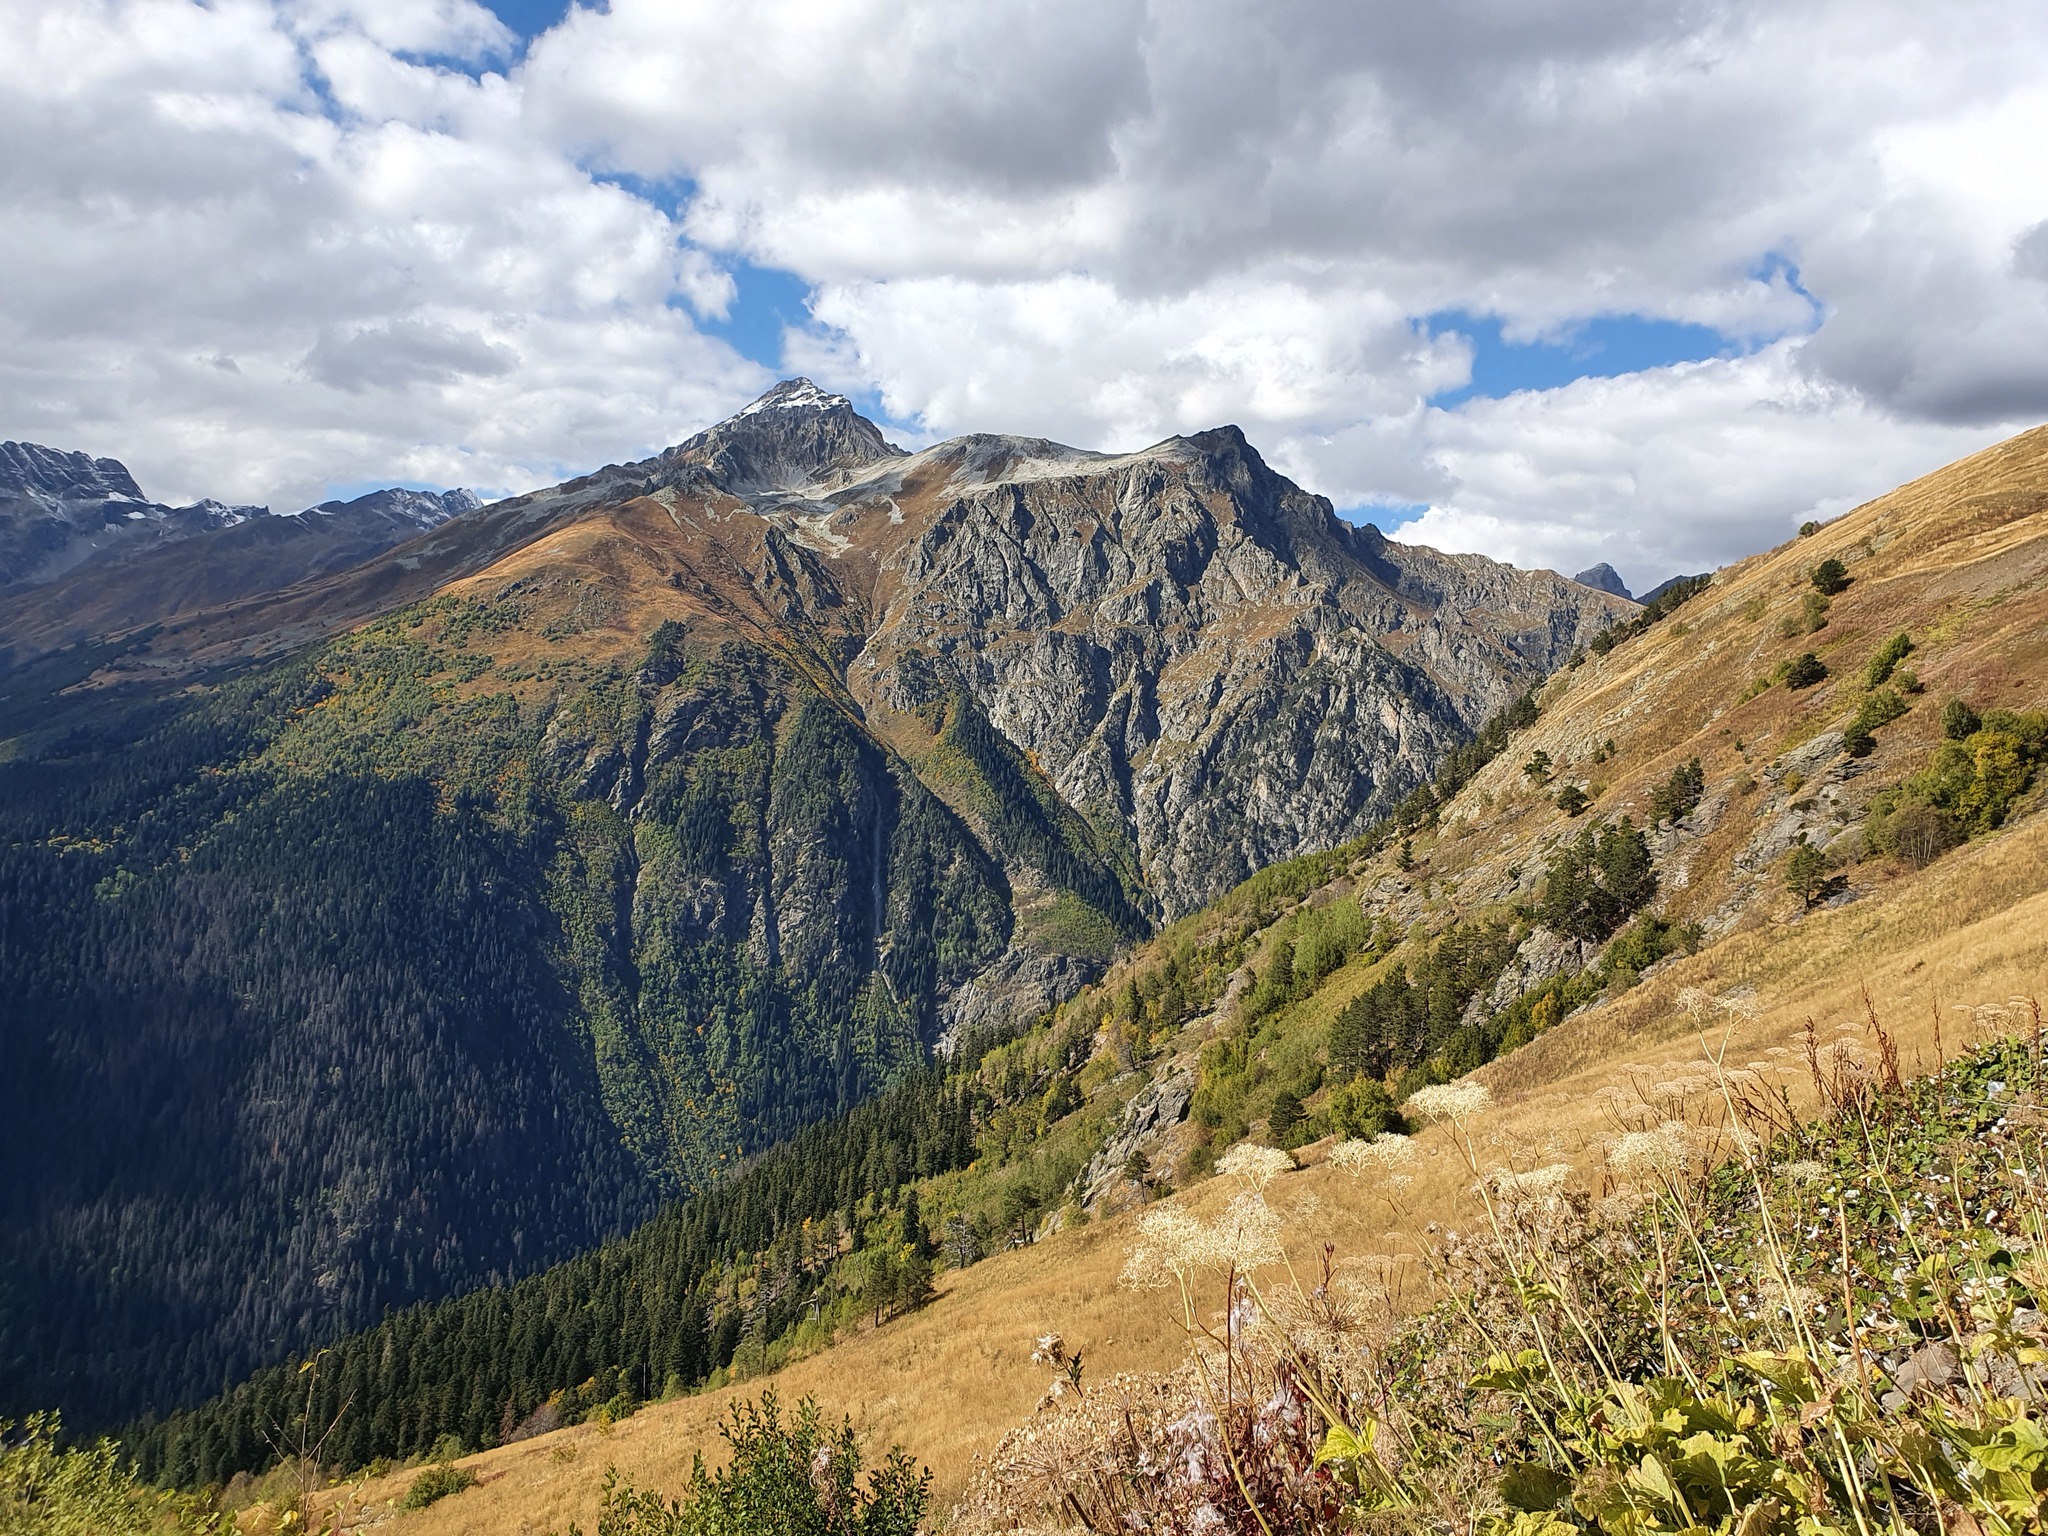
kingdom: Plantae
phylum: Tracheophyta
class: Magnoliopsida
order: Dipsacales
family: Caprifoliaceae
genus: Valeriana
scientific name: Valeriana alliariifolia
